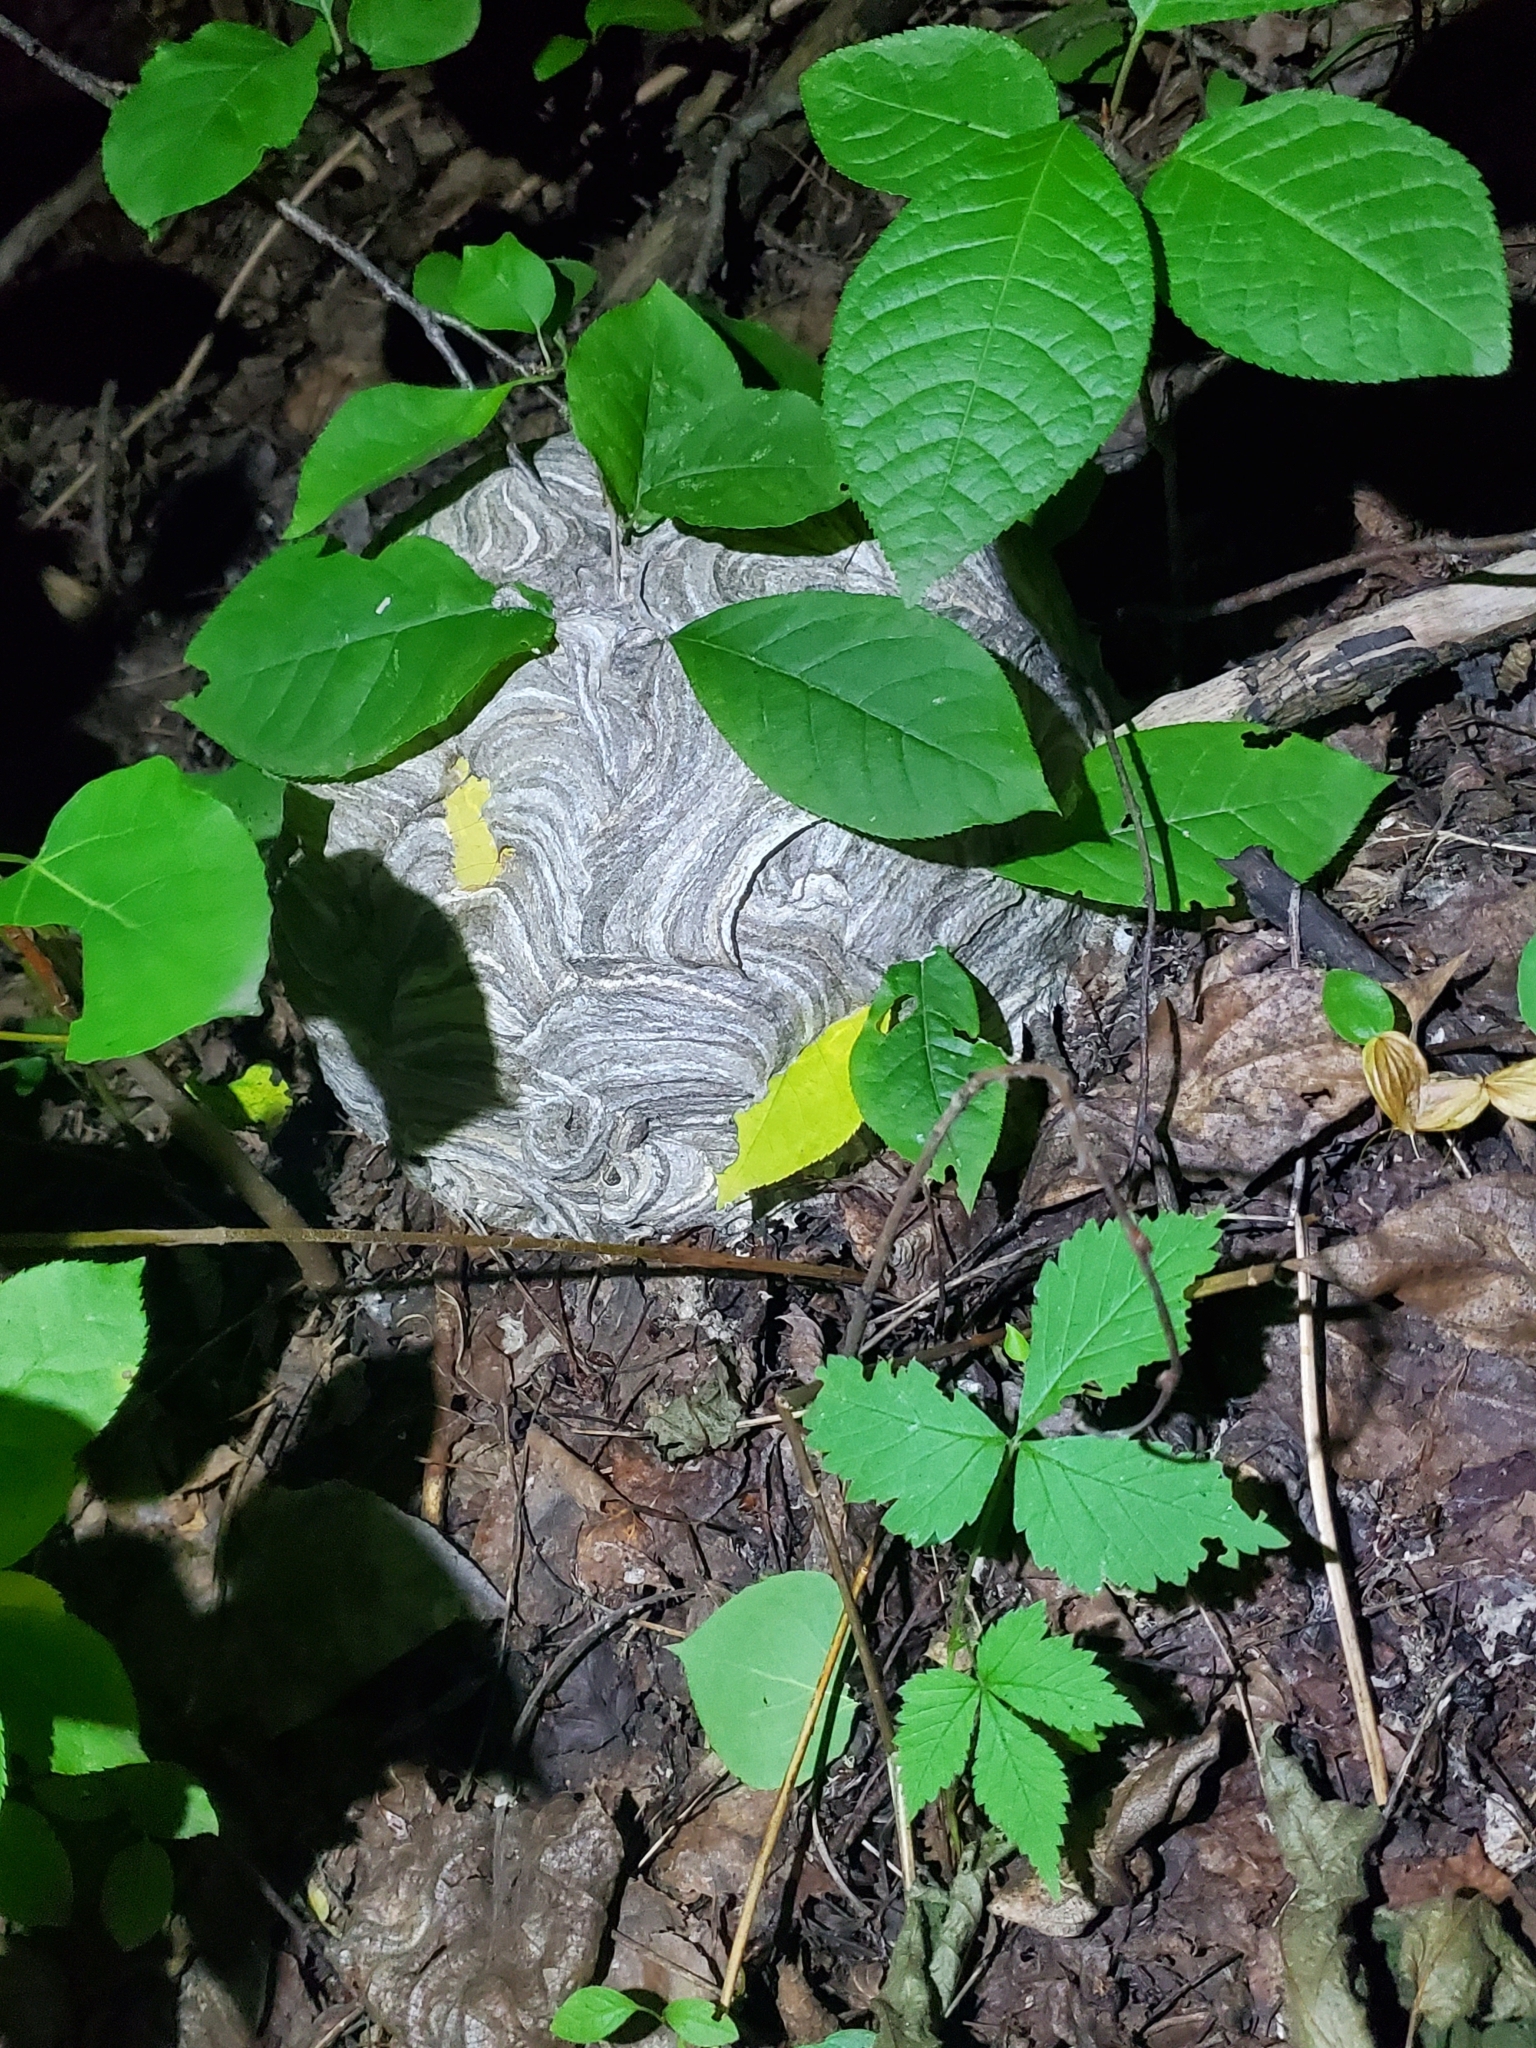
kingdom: Animalia
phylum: Arthropoda
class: Insecta
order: Hymenoptera
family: Vespidae
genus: Dolichovespula
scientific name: Dolichovespula maculata
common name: Bald-faced hornet
